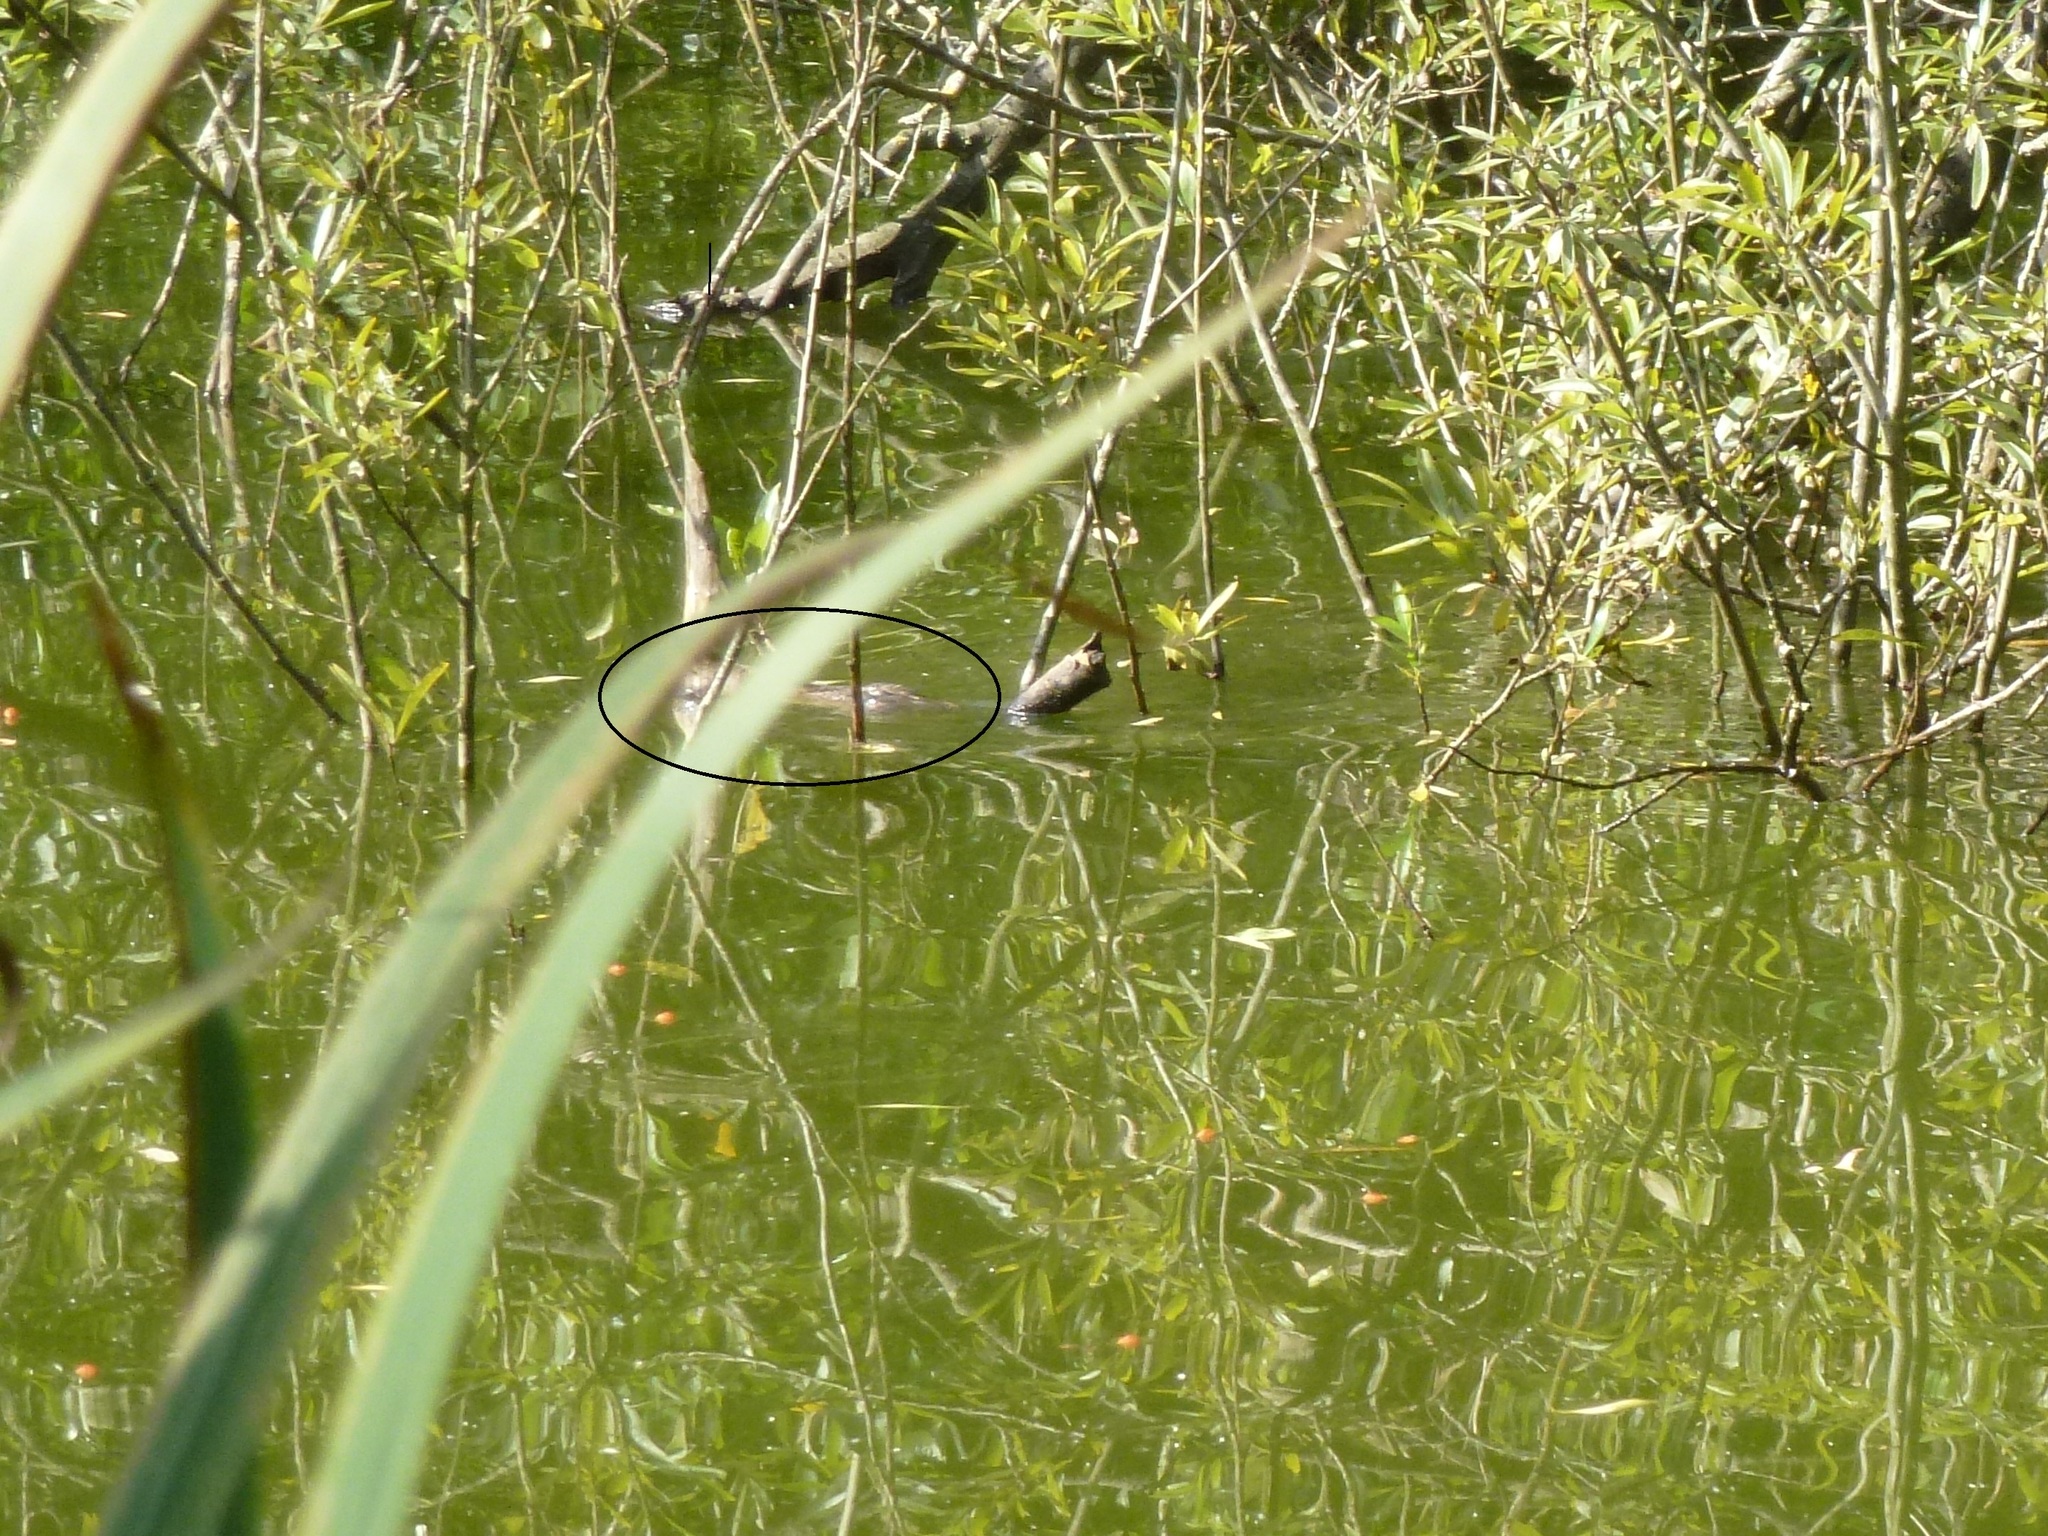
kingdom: Animalia
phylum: Chordata
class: Mammalia
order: Rodentia
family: Muridae
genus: Rattus
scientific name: Rattus norvegicus
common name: Brown rat
